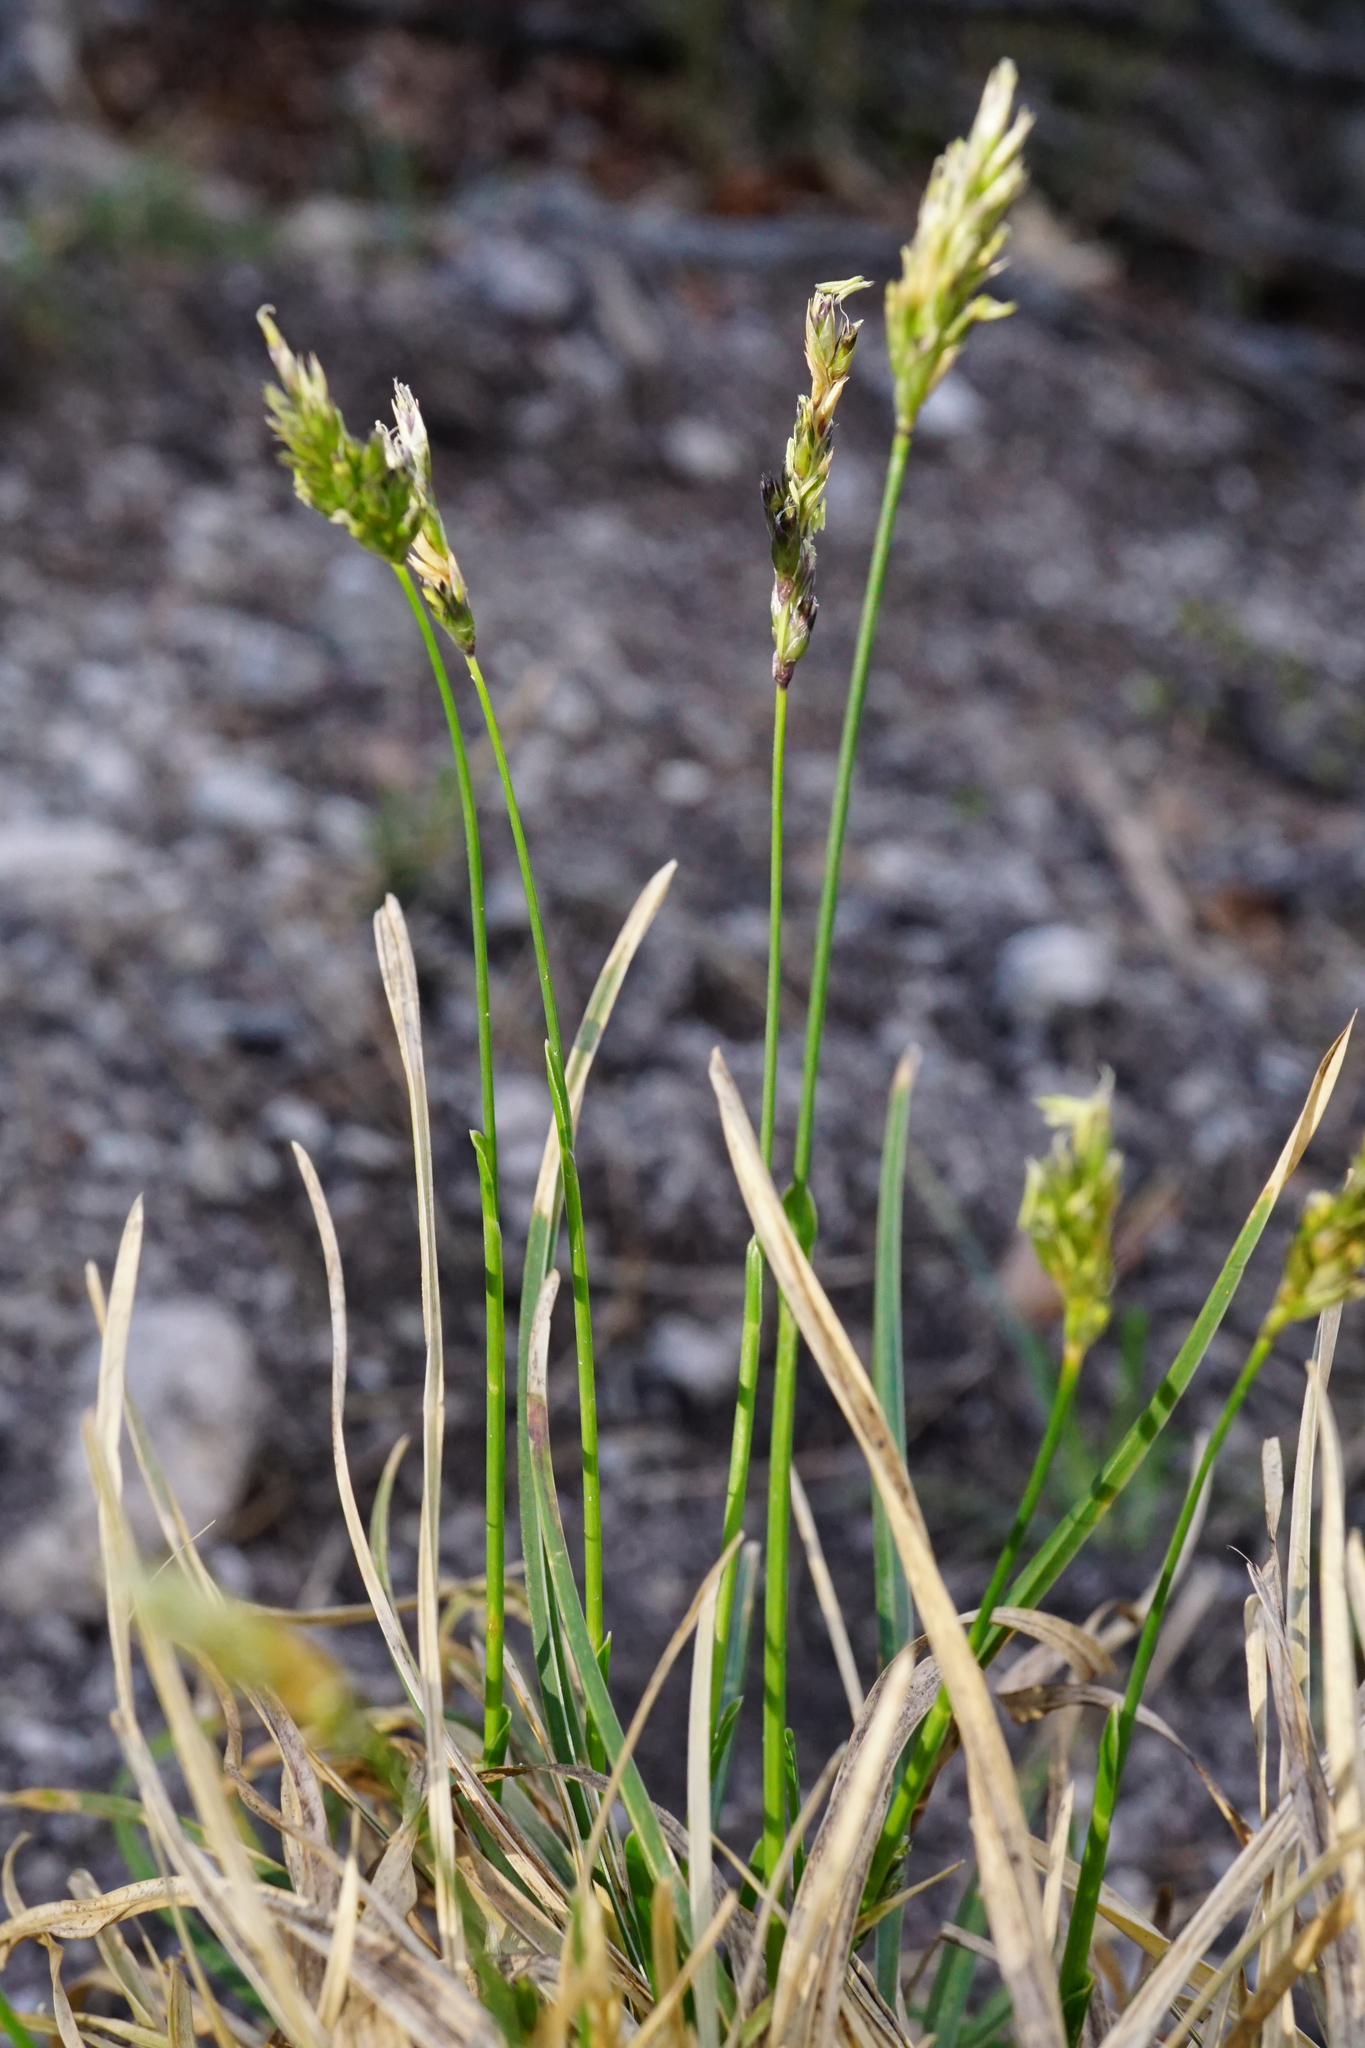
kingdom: Plantae
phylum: Tracheophyta
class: Liliopsida
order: Poales
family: Poaceae
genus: Sesleria
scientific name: Sesleria caerulea
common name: Blue moor-grass
